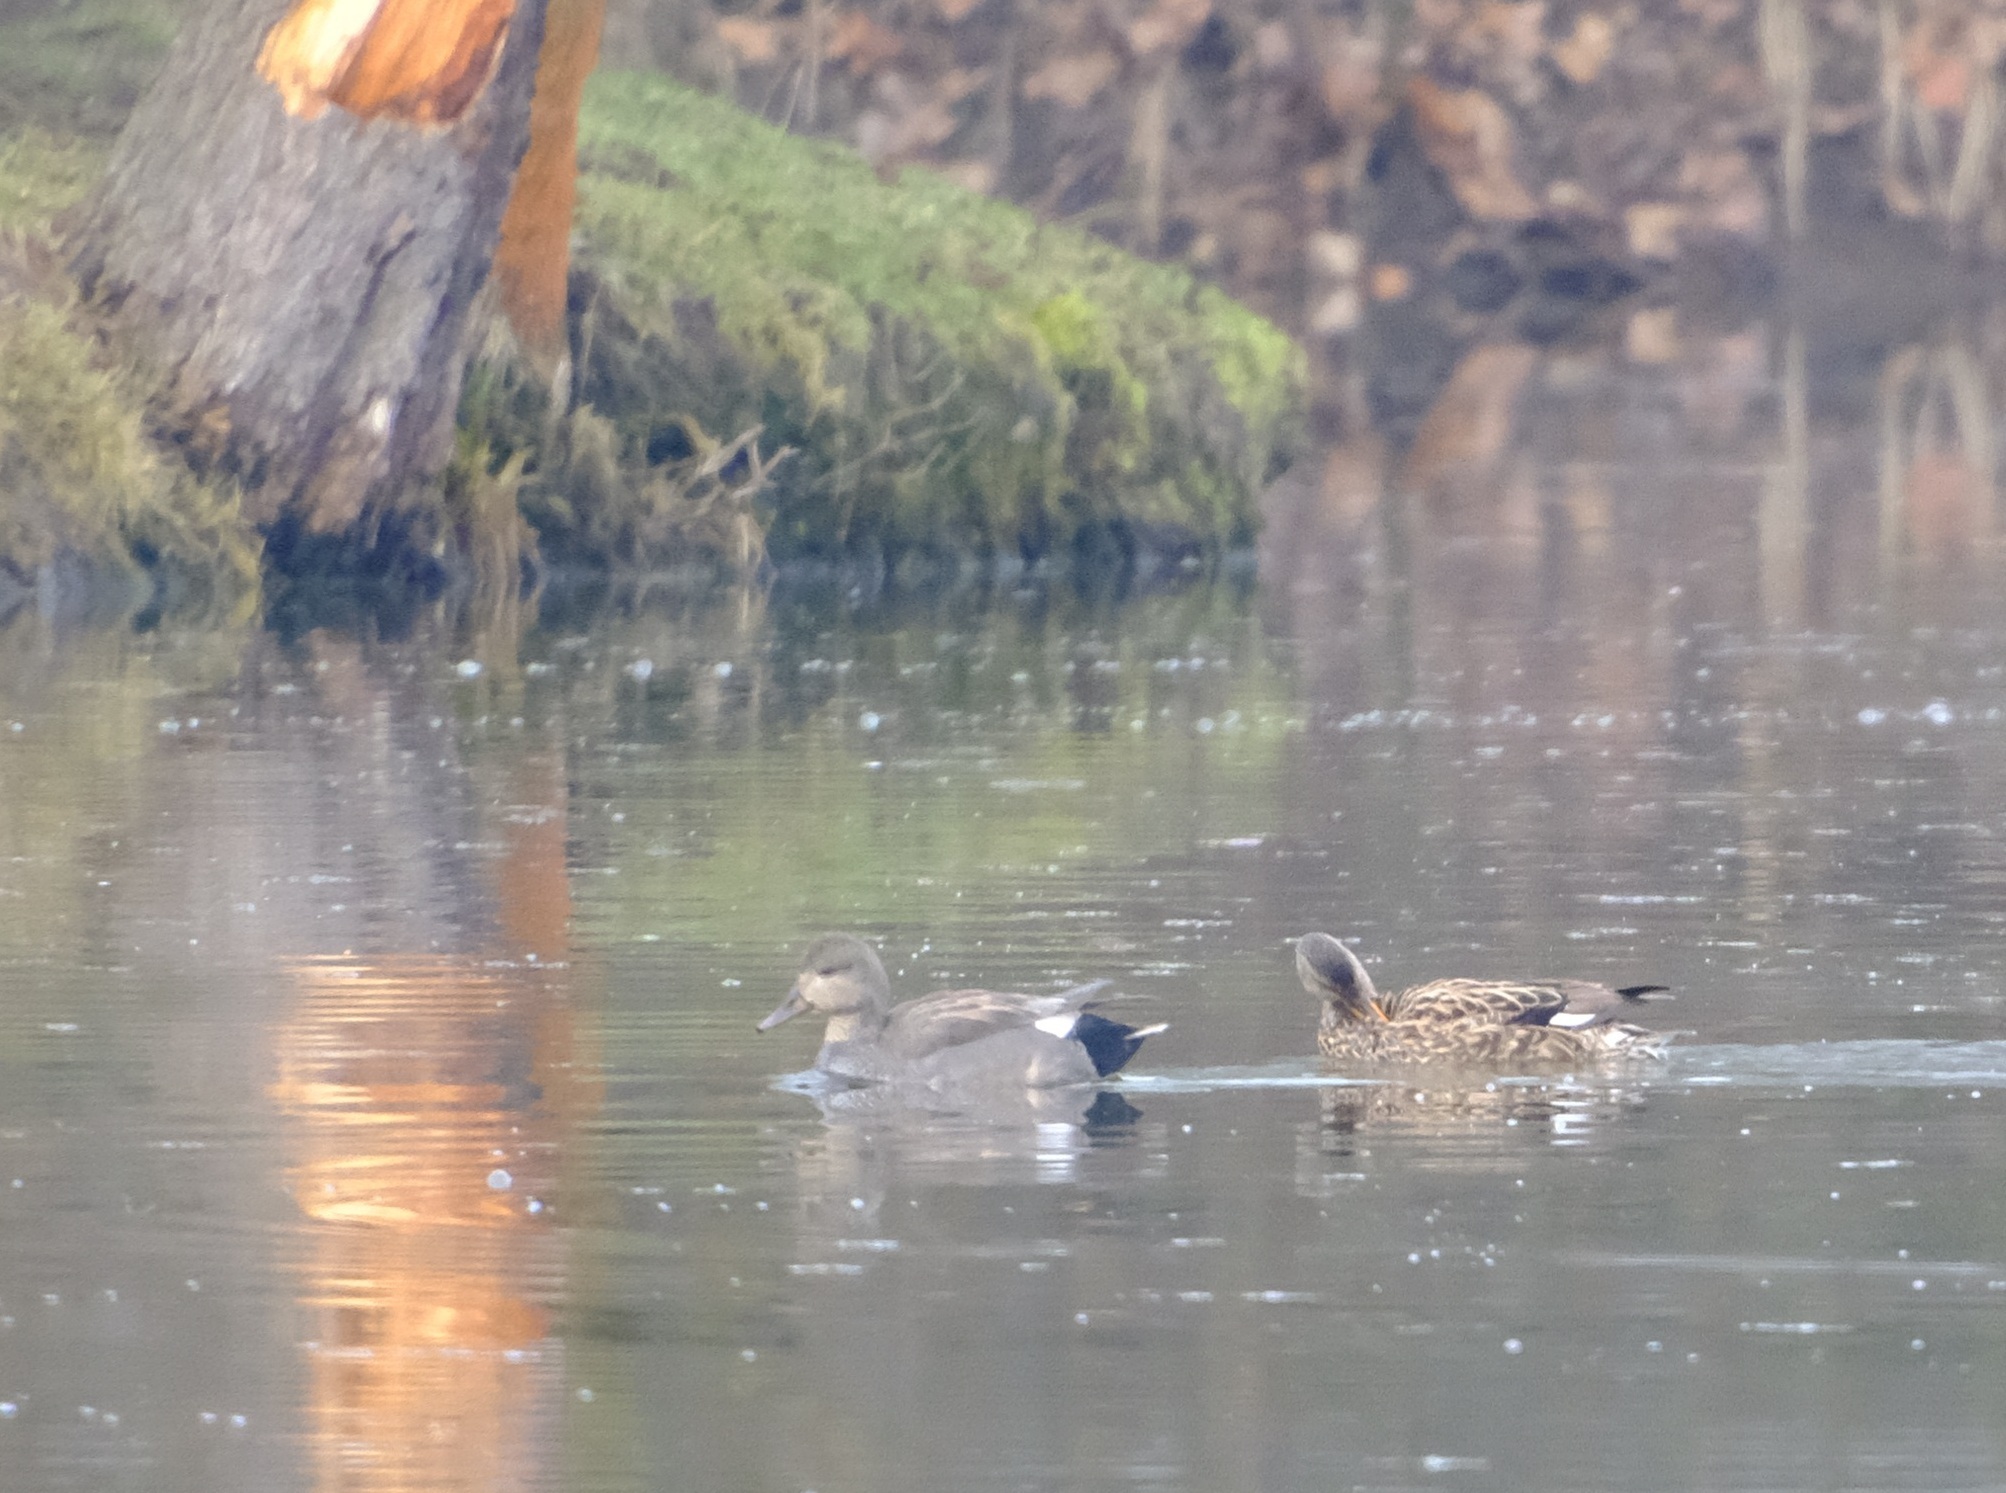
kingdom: Animalia
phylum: Chordata
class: Aves
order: Anseriformes
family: Anatidae
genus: Mareca
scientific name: Mareca strepera
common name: Gadwall
